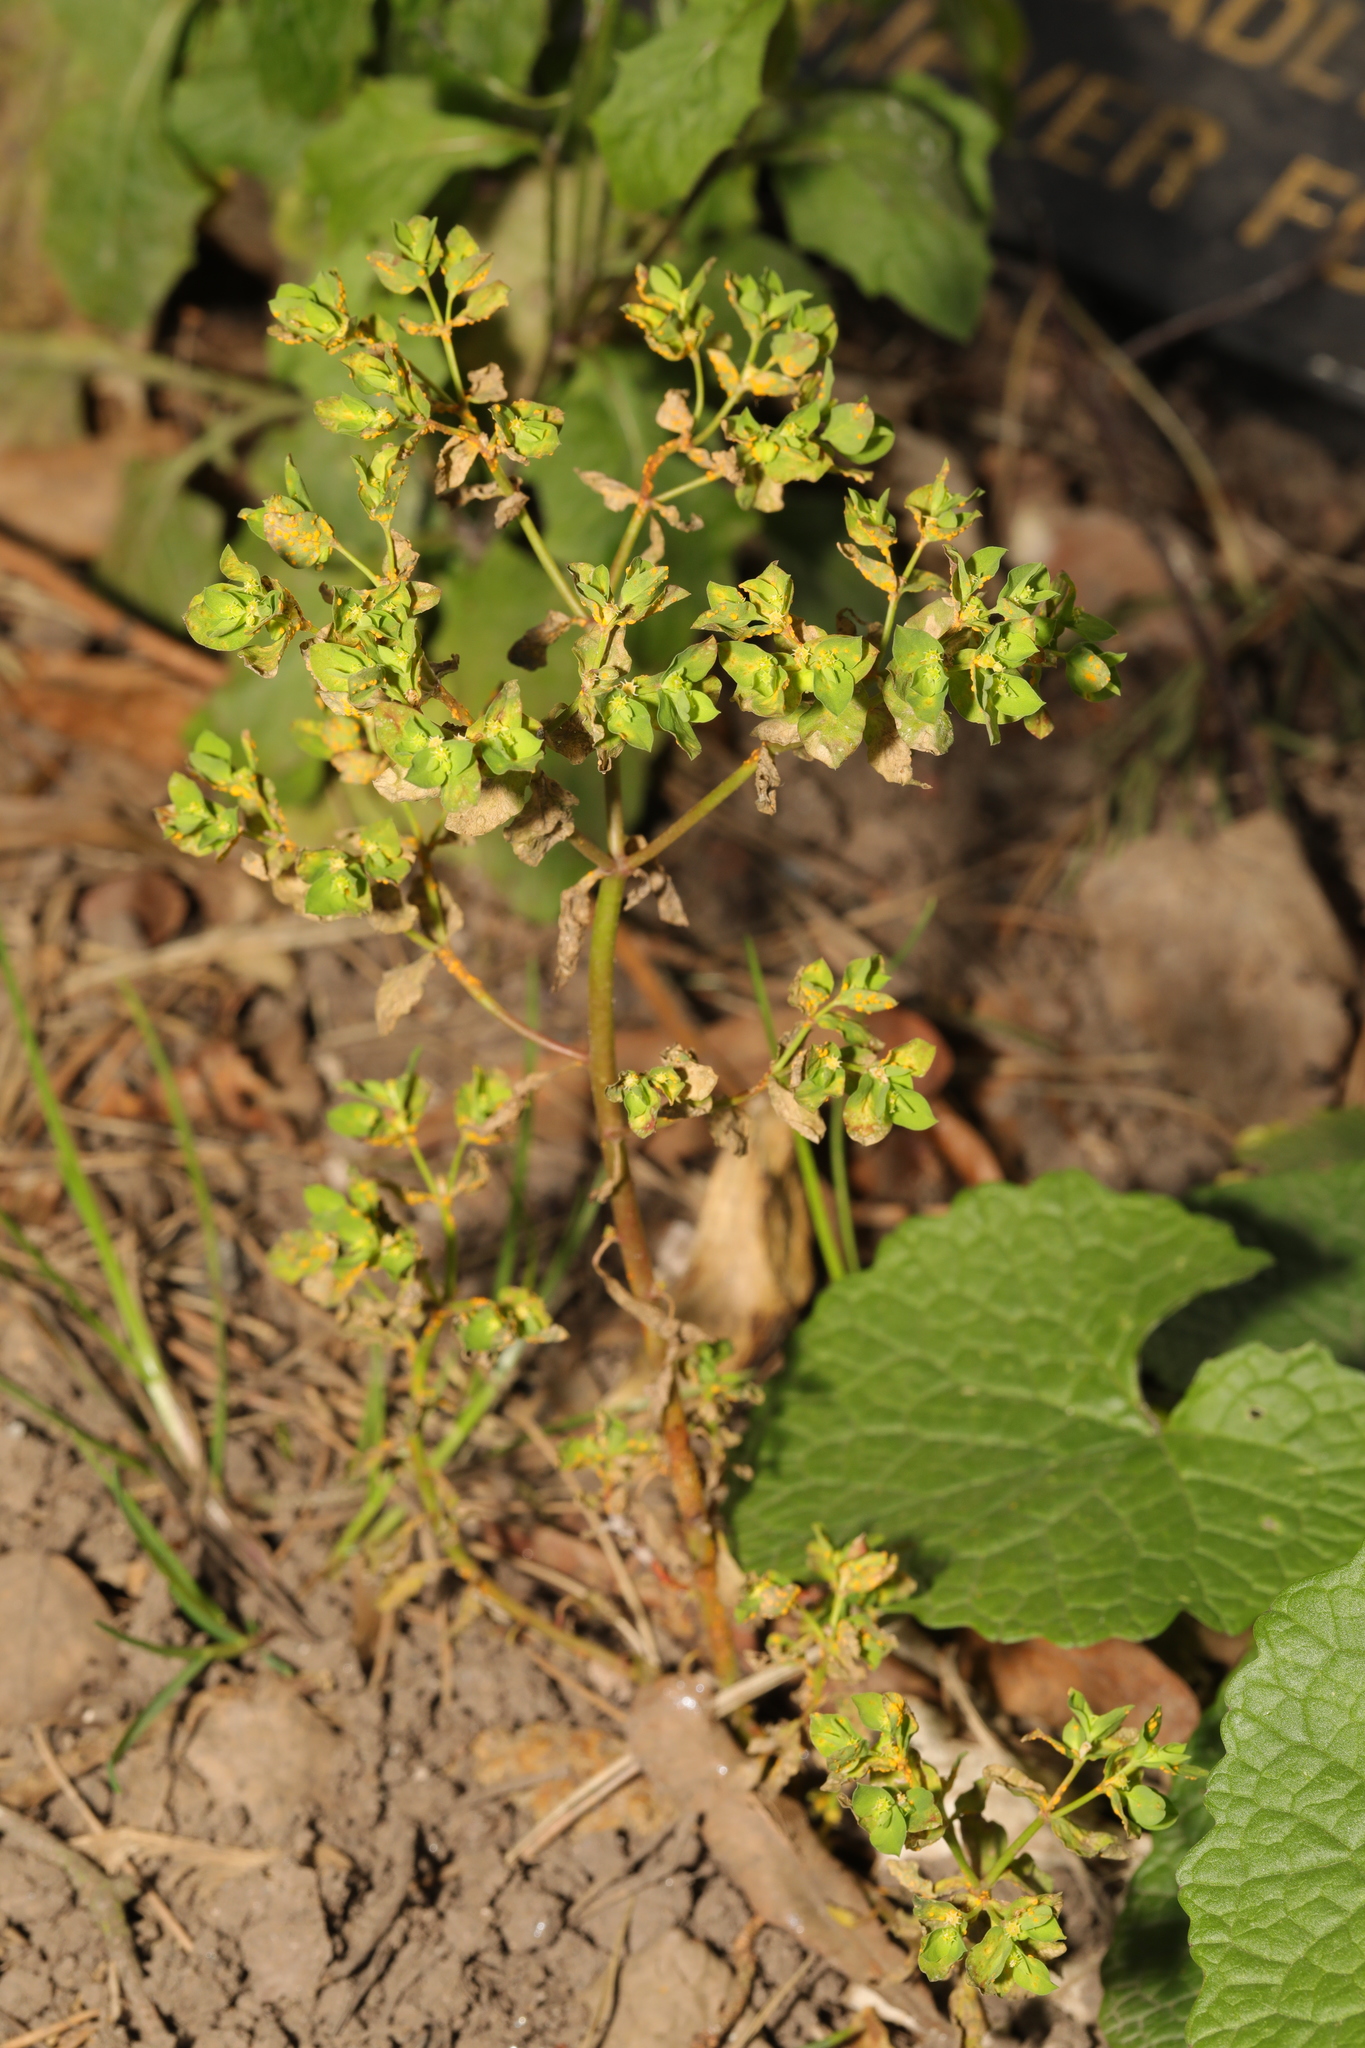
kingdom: Plantae
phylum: Tracheophyta
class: Magnoliopsida
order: Malpighiales
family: Euphorbiaceae
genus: Euphorbia
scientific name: Euphorbia peplus
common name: Petty spurge
